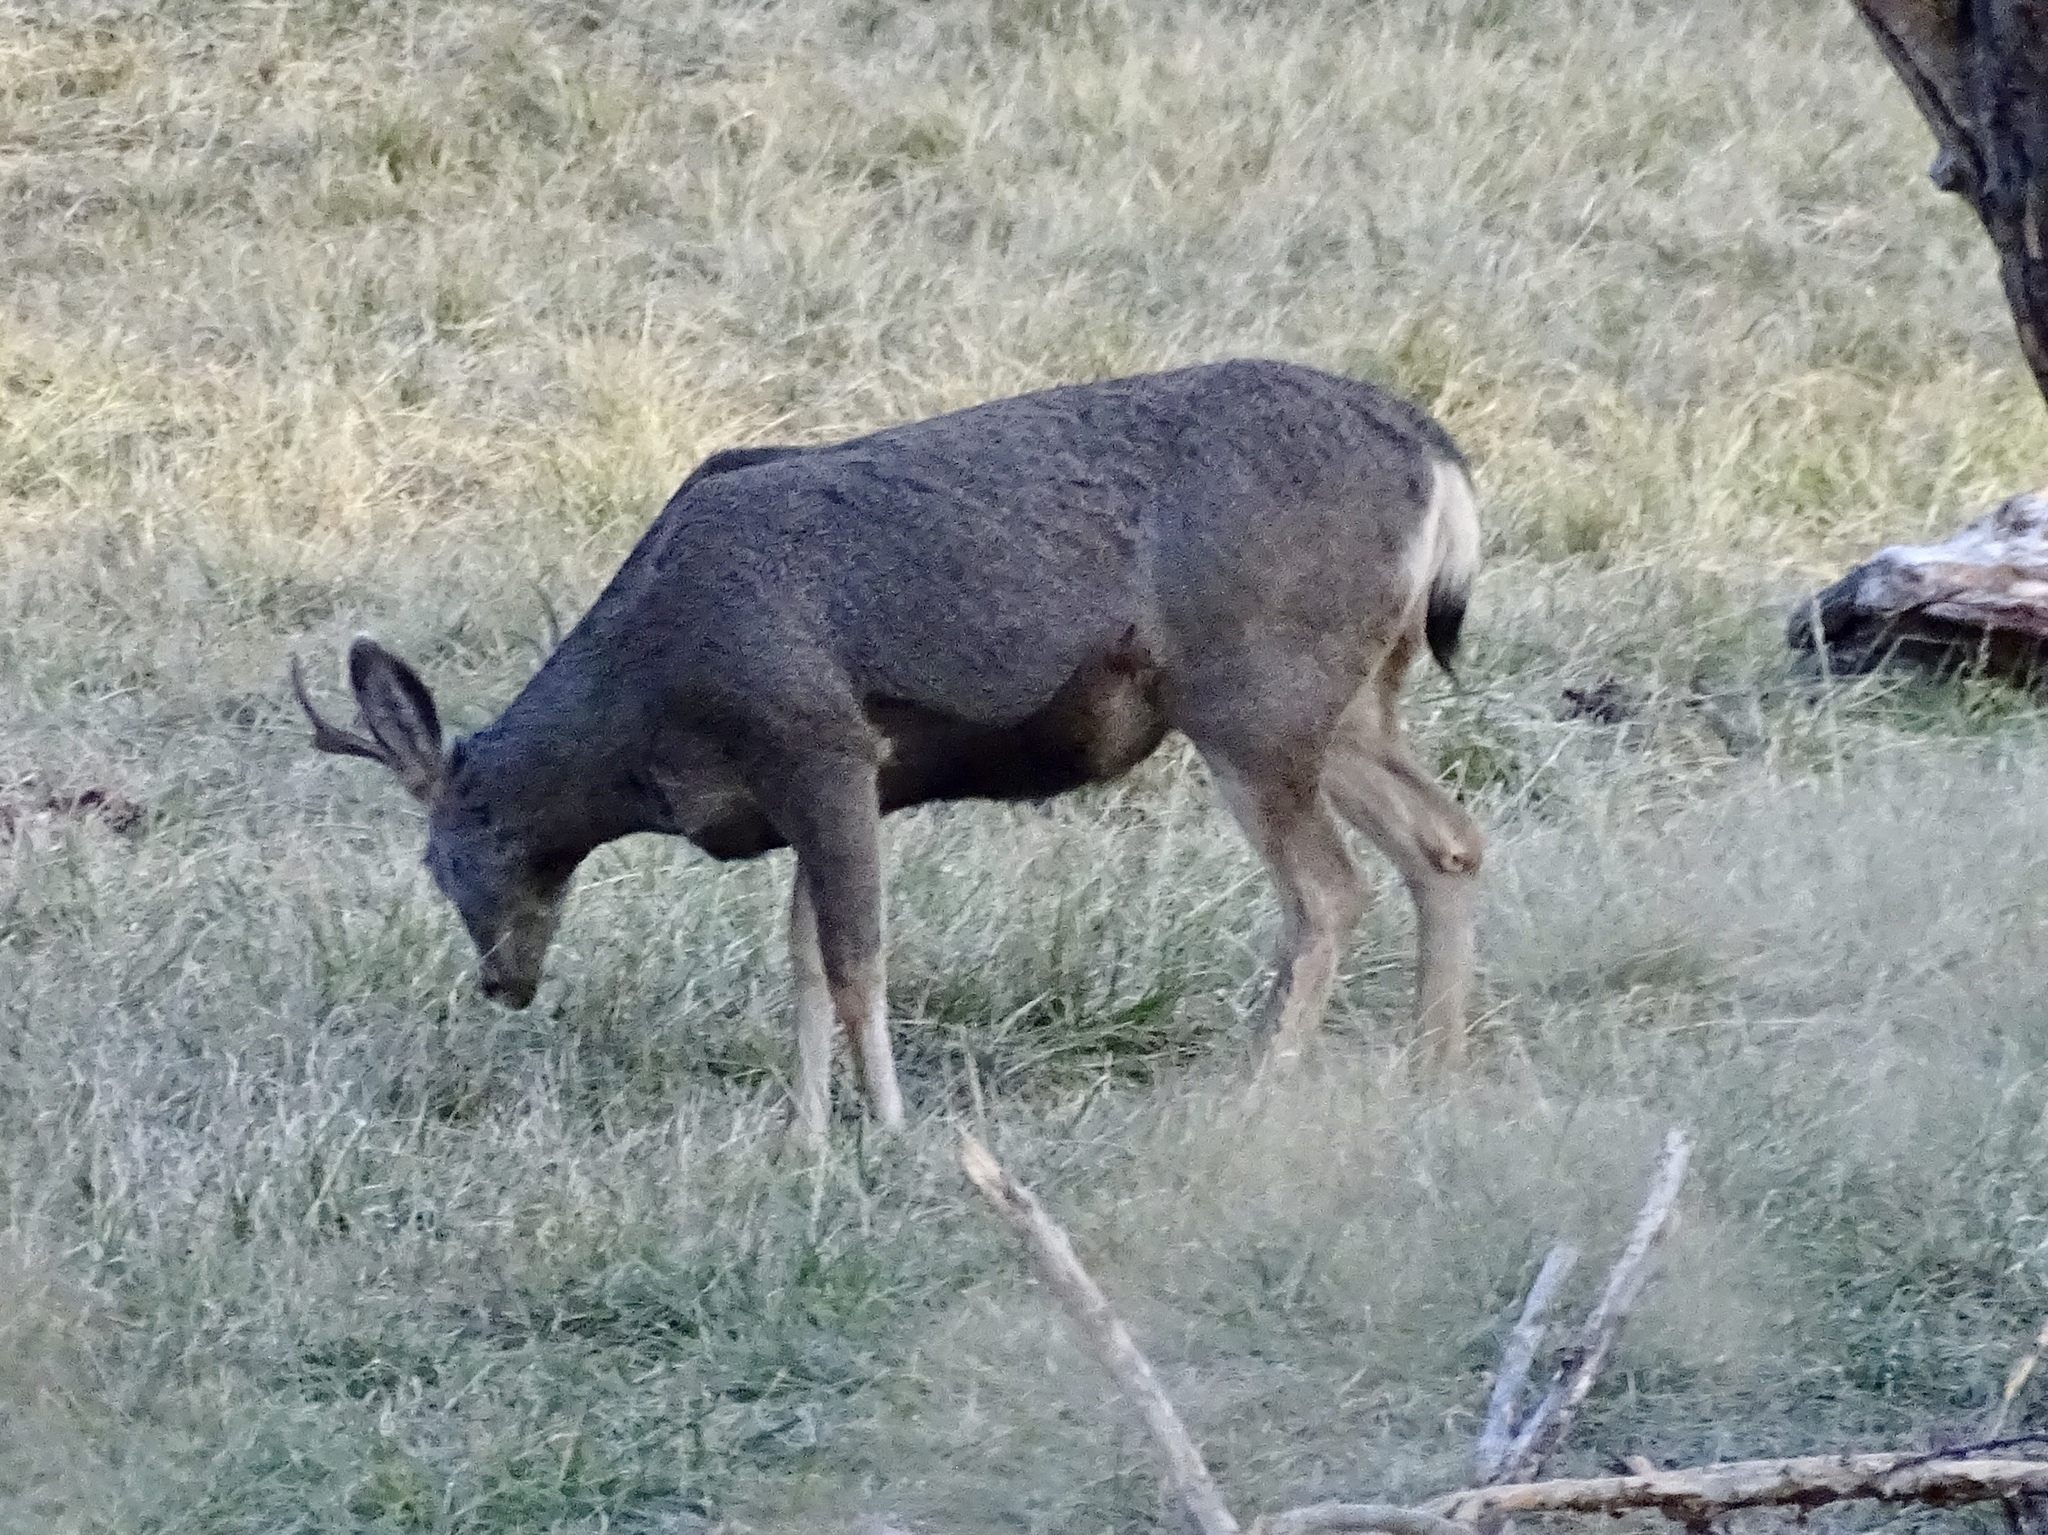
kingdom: Animalia
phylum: Chordata
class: Mammalia
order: Artiodactyla
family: Cervidae
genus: Odocoileus
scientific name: Odocoileus hemionus
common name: Mule deer
